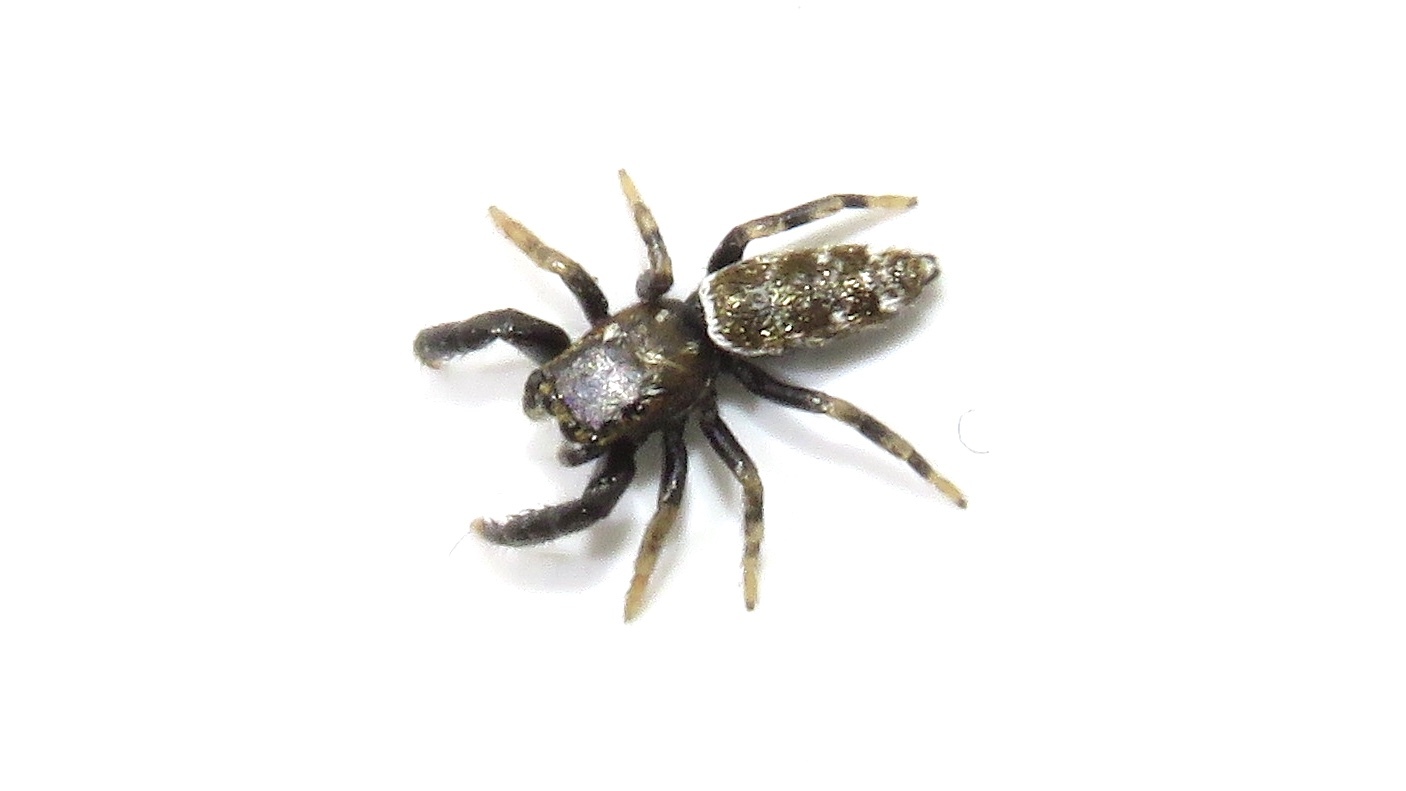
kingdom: Animalia
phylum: Arthropoda
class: Arachnida
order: Araneae
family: Salticidae
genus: Marpissa
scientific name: Marpissa formosa
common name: Short-bellied slender jumping spider
